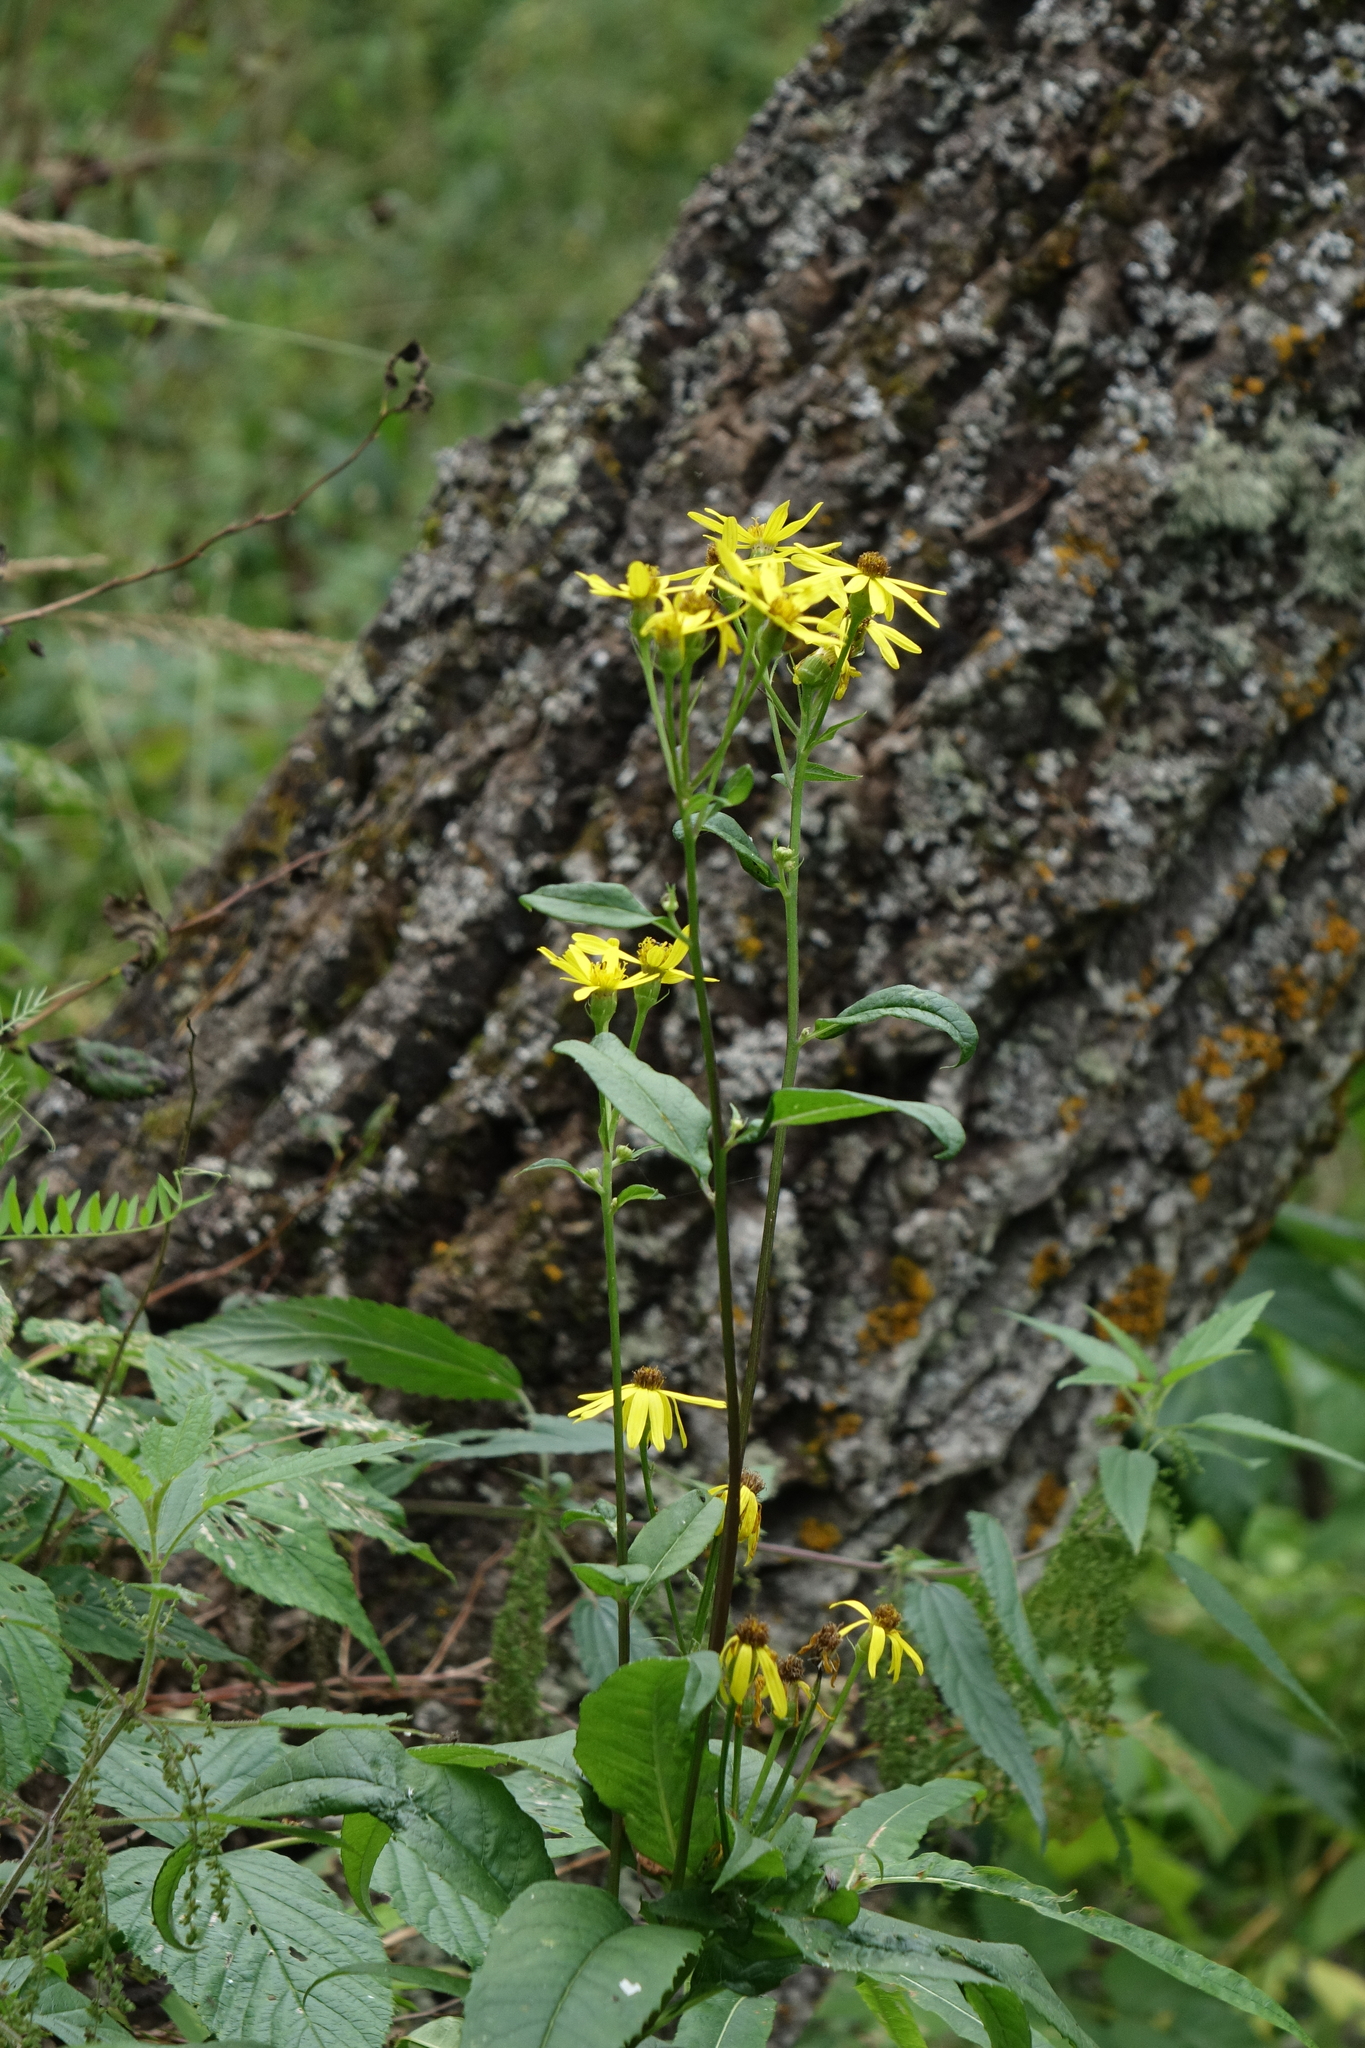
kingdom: Plantae
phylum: Tracheophyta
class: Magnoliopsida
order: Asterales
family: Asteraceae
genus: Senecio
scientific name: Senecio nemorensis
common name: Alpine ragwort
